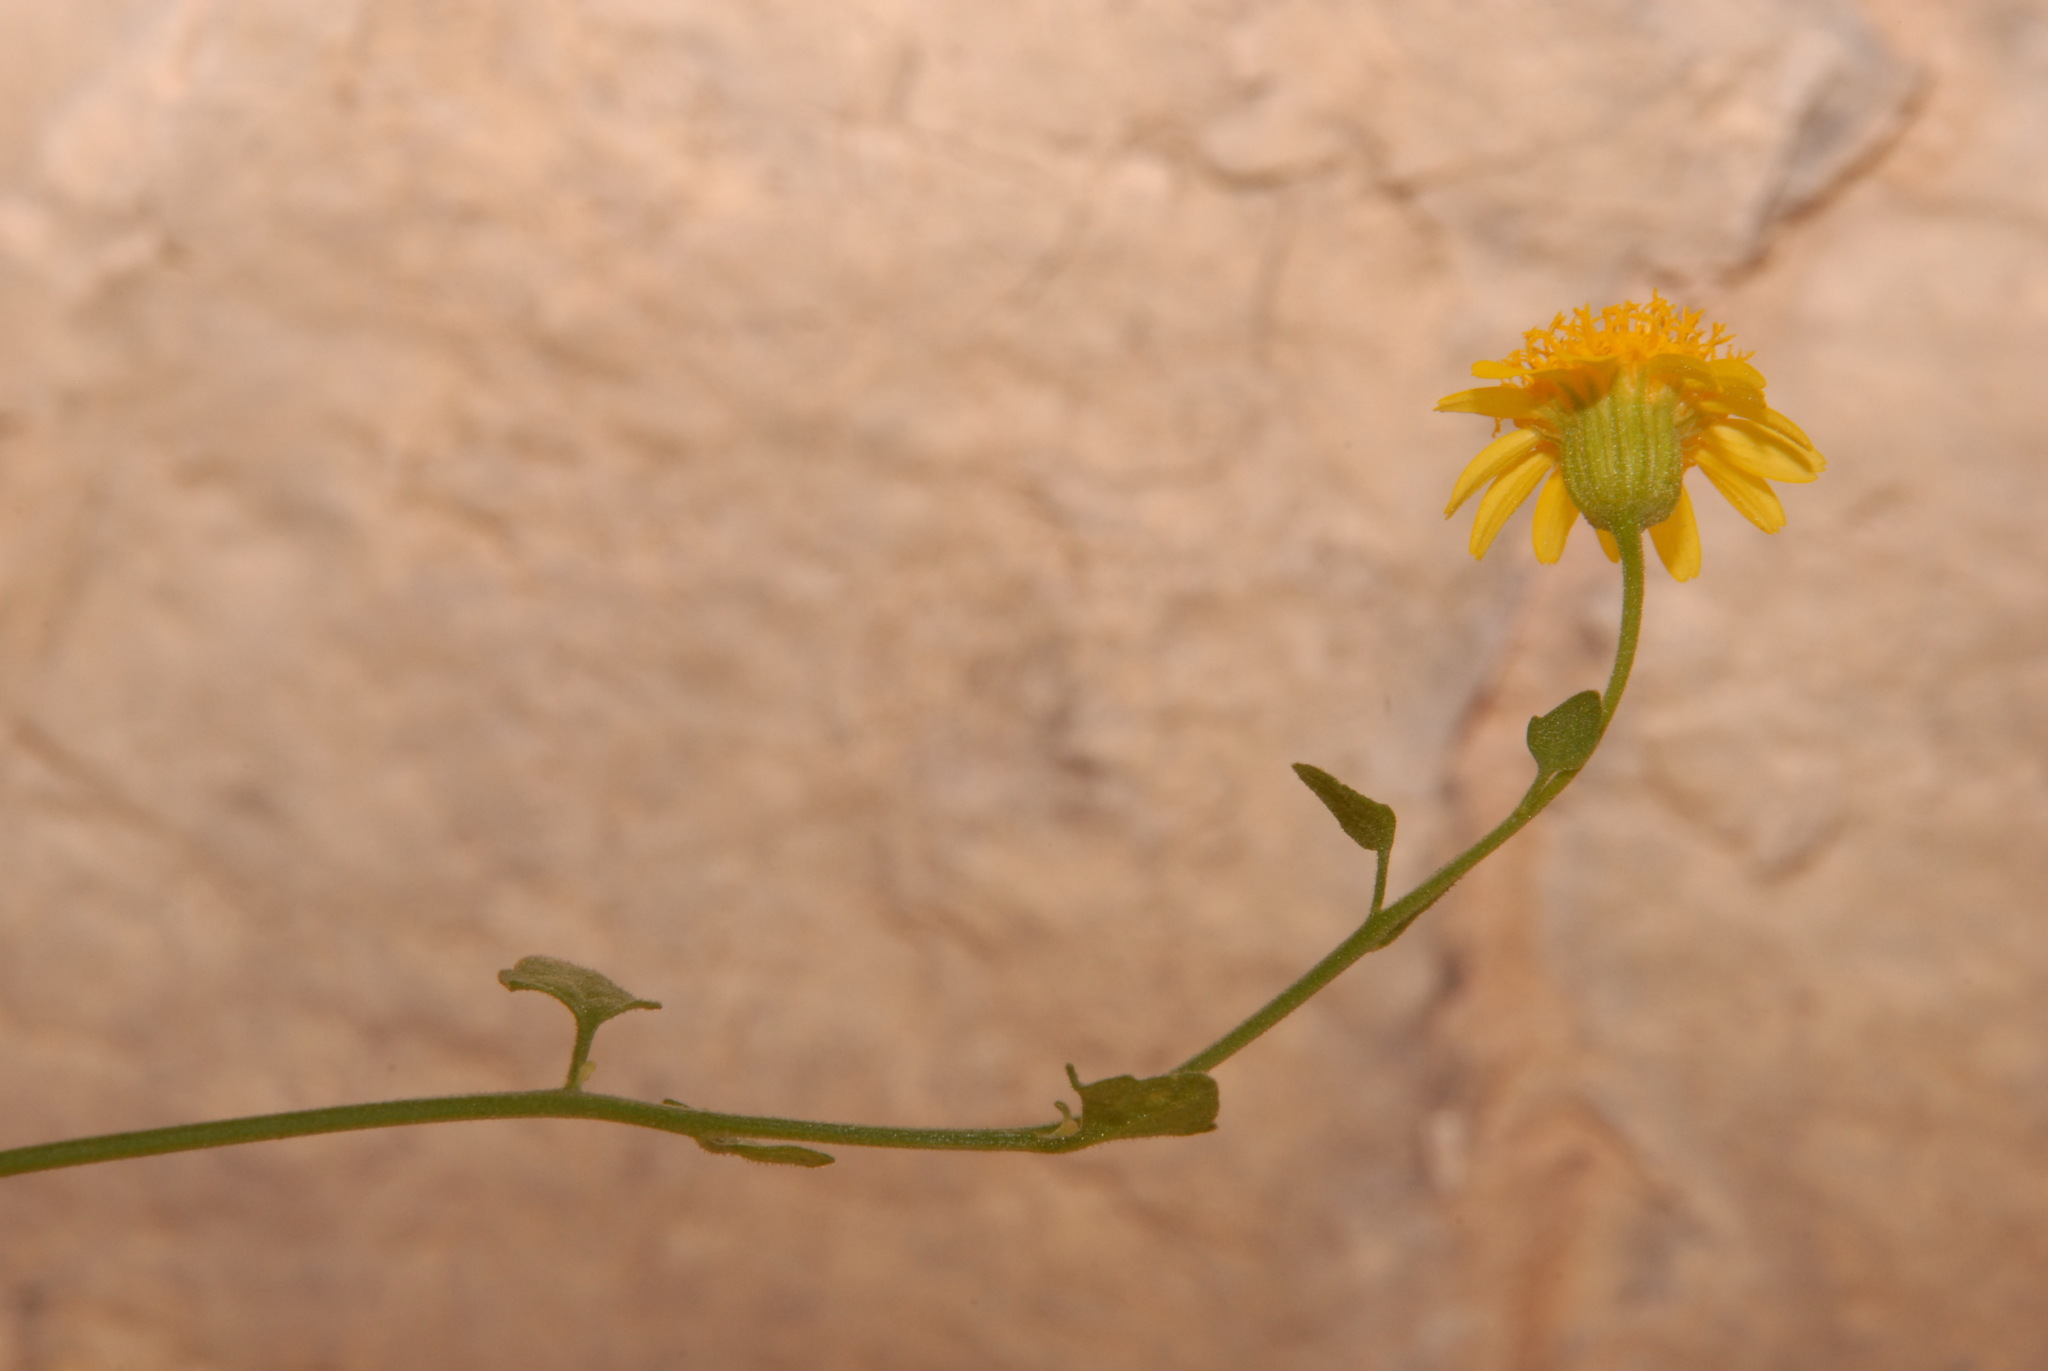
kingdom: Plantae
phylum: Tracheophyta
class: Magnoliopsida
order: Asterales
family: Asteraceae
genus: Laphamia
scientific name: Laphamia stansburyi
